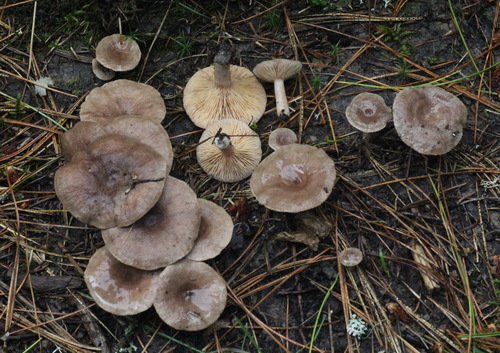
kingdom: Fungi
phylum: Basidiomycota
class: Agaricomycetes
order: Russulales
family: Russulaceae
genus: Lactarius
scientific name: Lactarius mammosus
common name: Pap milkcap
